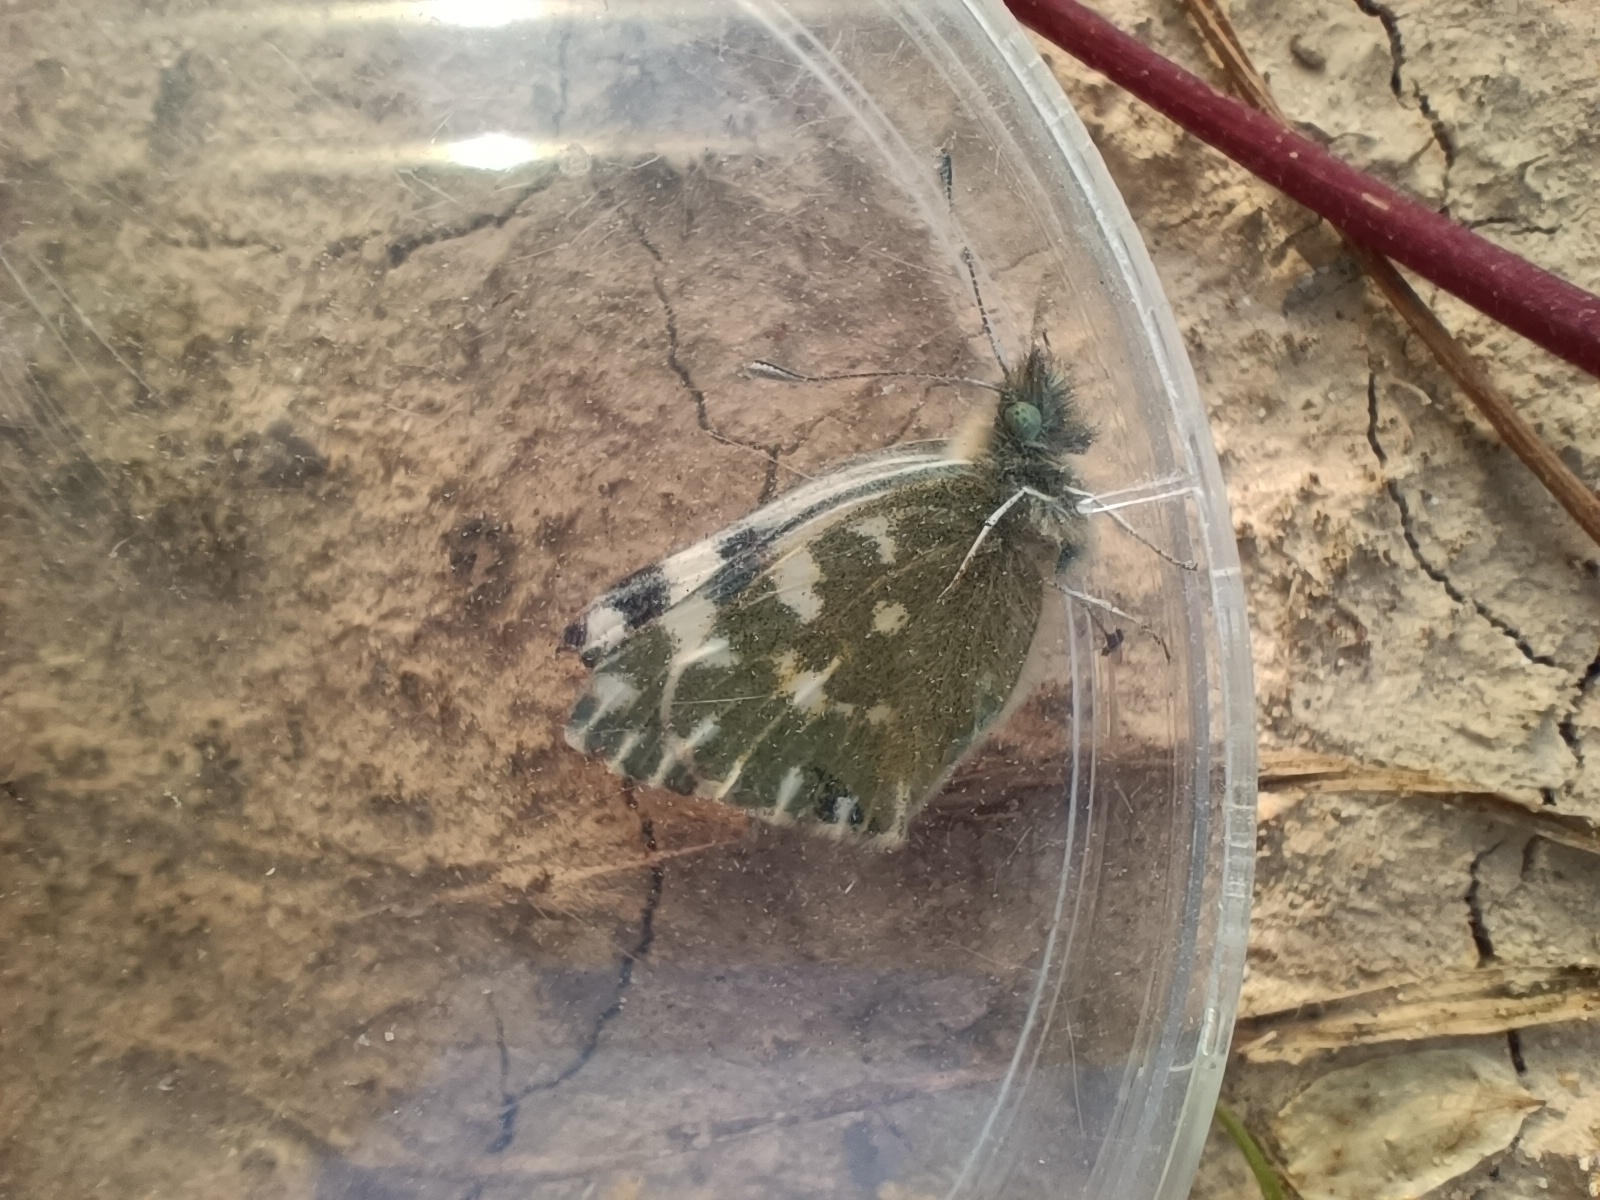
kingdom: Animalia
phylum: Arthropoda
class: Insecta
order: Lepidoptera
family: Pieridae
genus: Pontia
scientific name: Pontia daplidice
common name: Bath white
